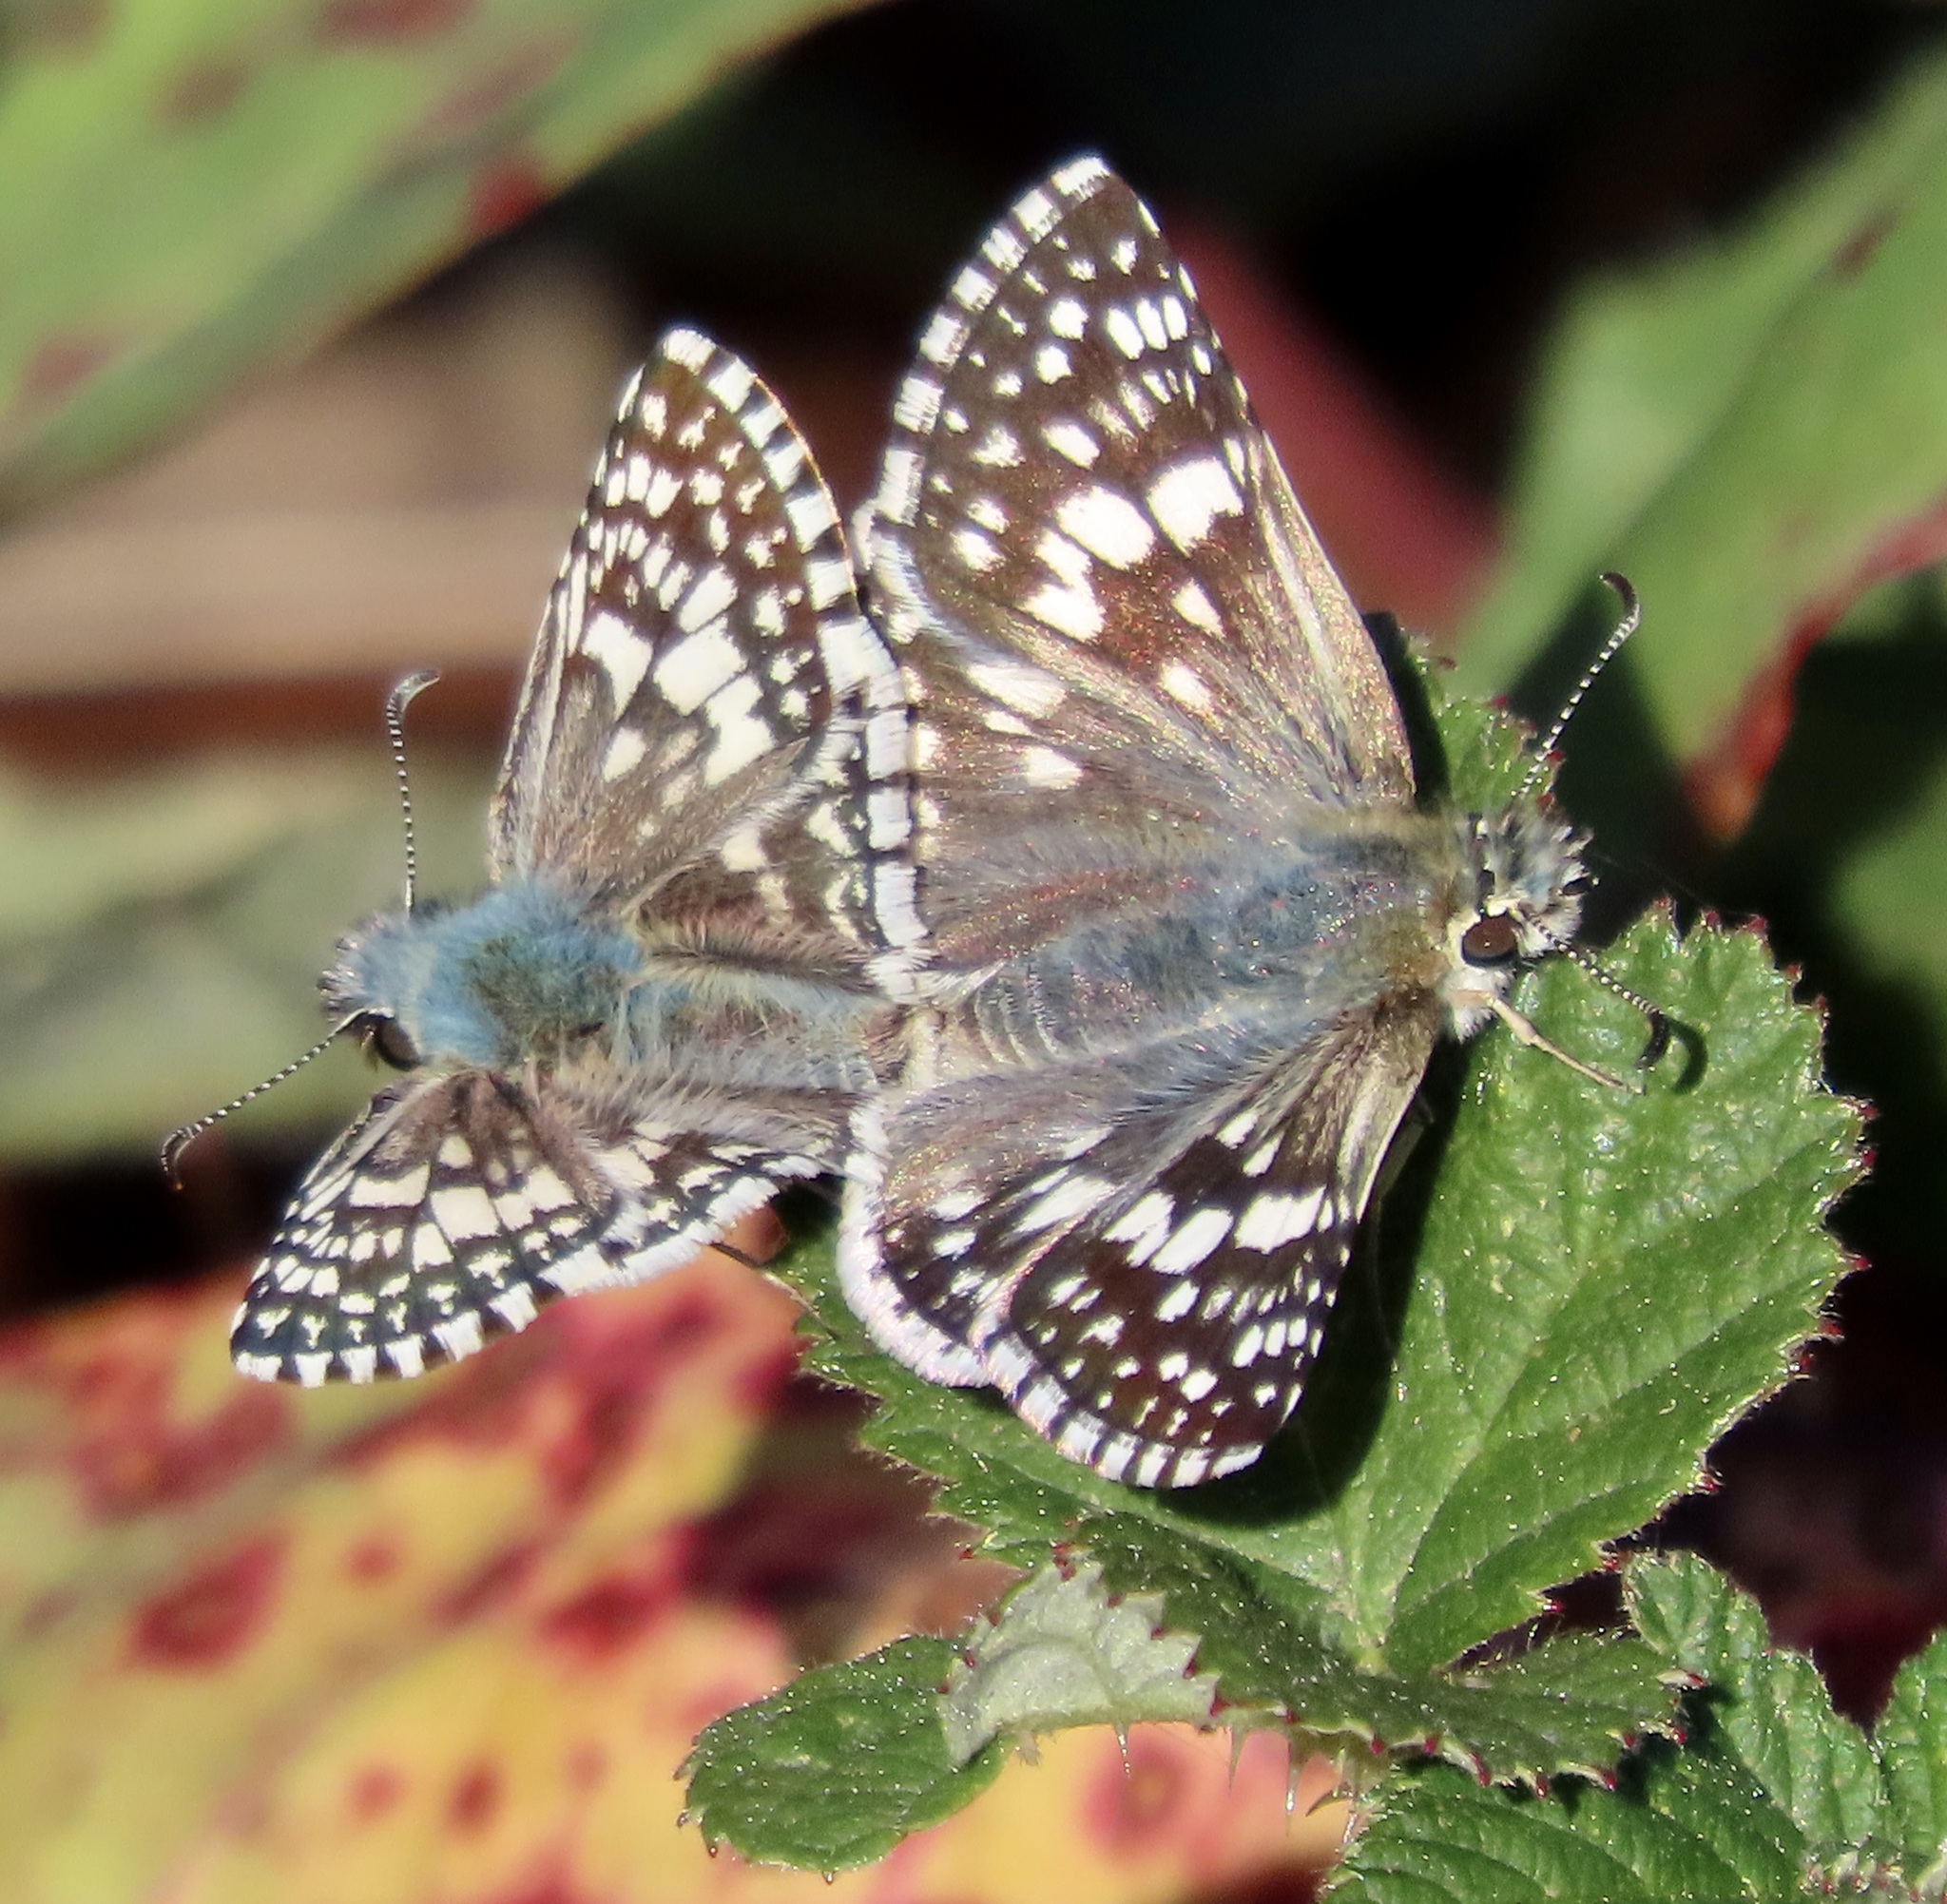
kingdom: Animalia
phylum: Arthropoda
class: Insecta
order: Lepidoptera
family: Hesperiidae
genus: Burnsius
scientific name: Burnsius communis
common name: Common checkered-skipper
